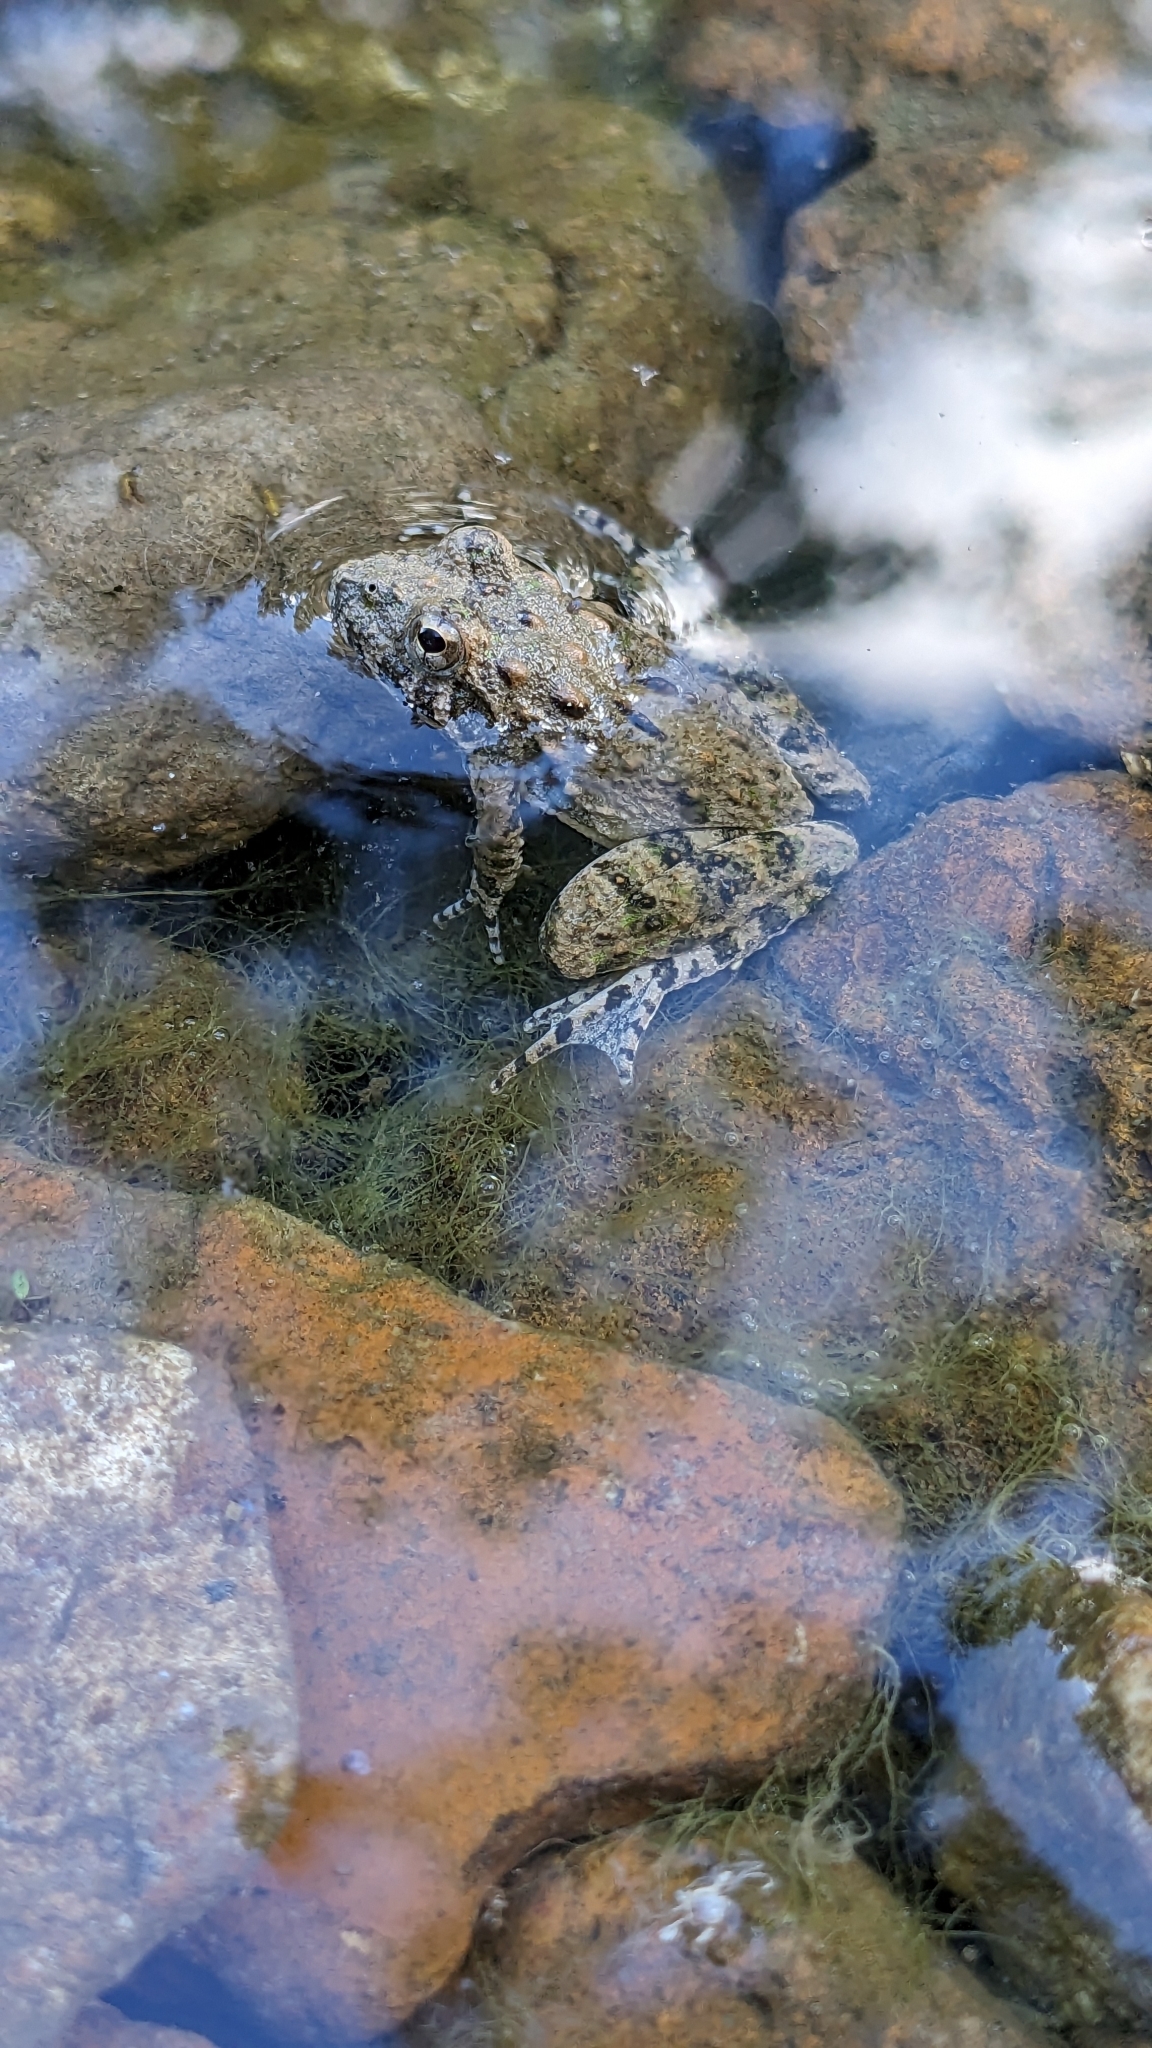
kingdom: Animalia
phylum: Chordata
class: Amphibia
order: Anura
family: Hylidae
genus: Acris
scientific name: Acris blanchardi
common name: Blanchard's cricket frog
